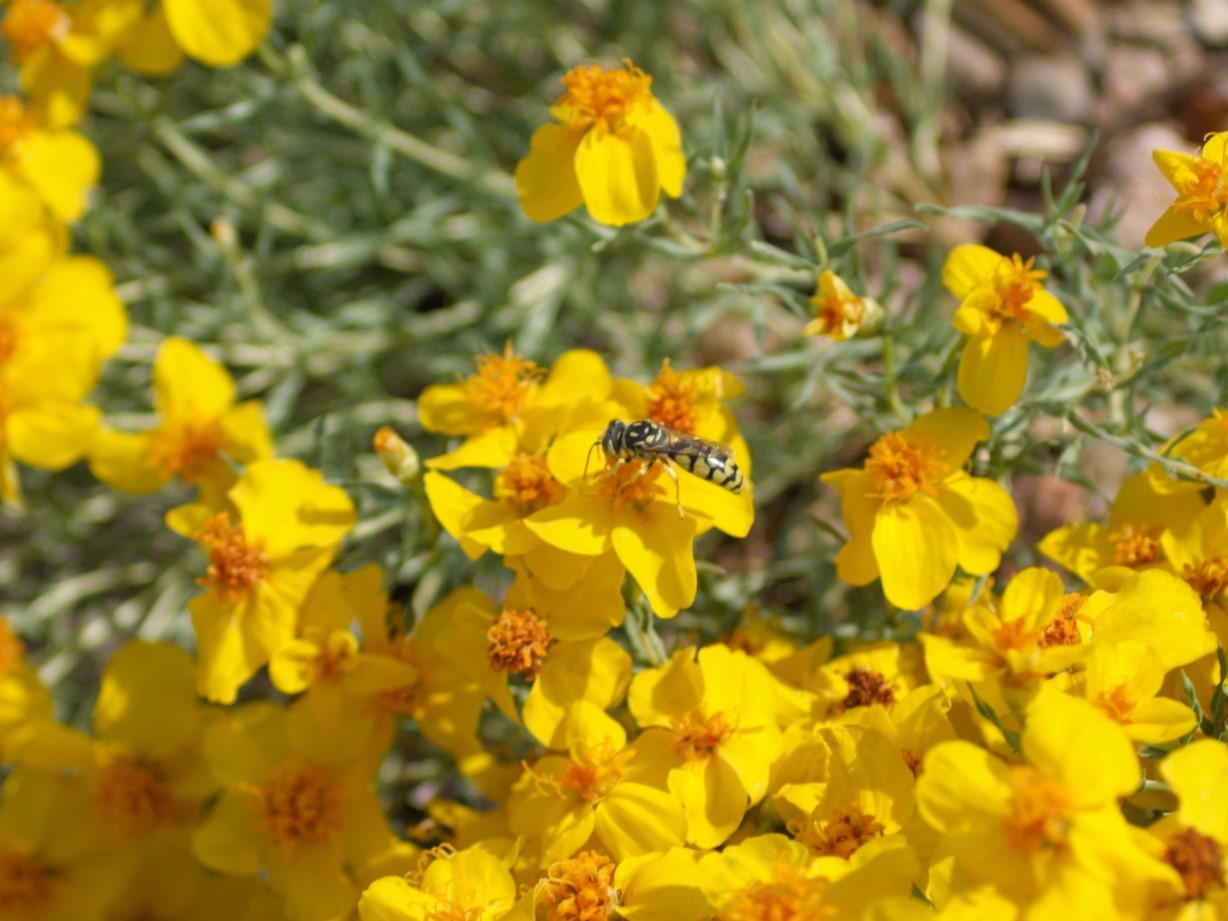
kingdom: Animalia
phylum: Arthropoda
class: Insecta
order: Hymenoptera
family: Crabronidae
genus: Steniolia
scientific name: Steniolia
